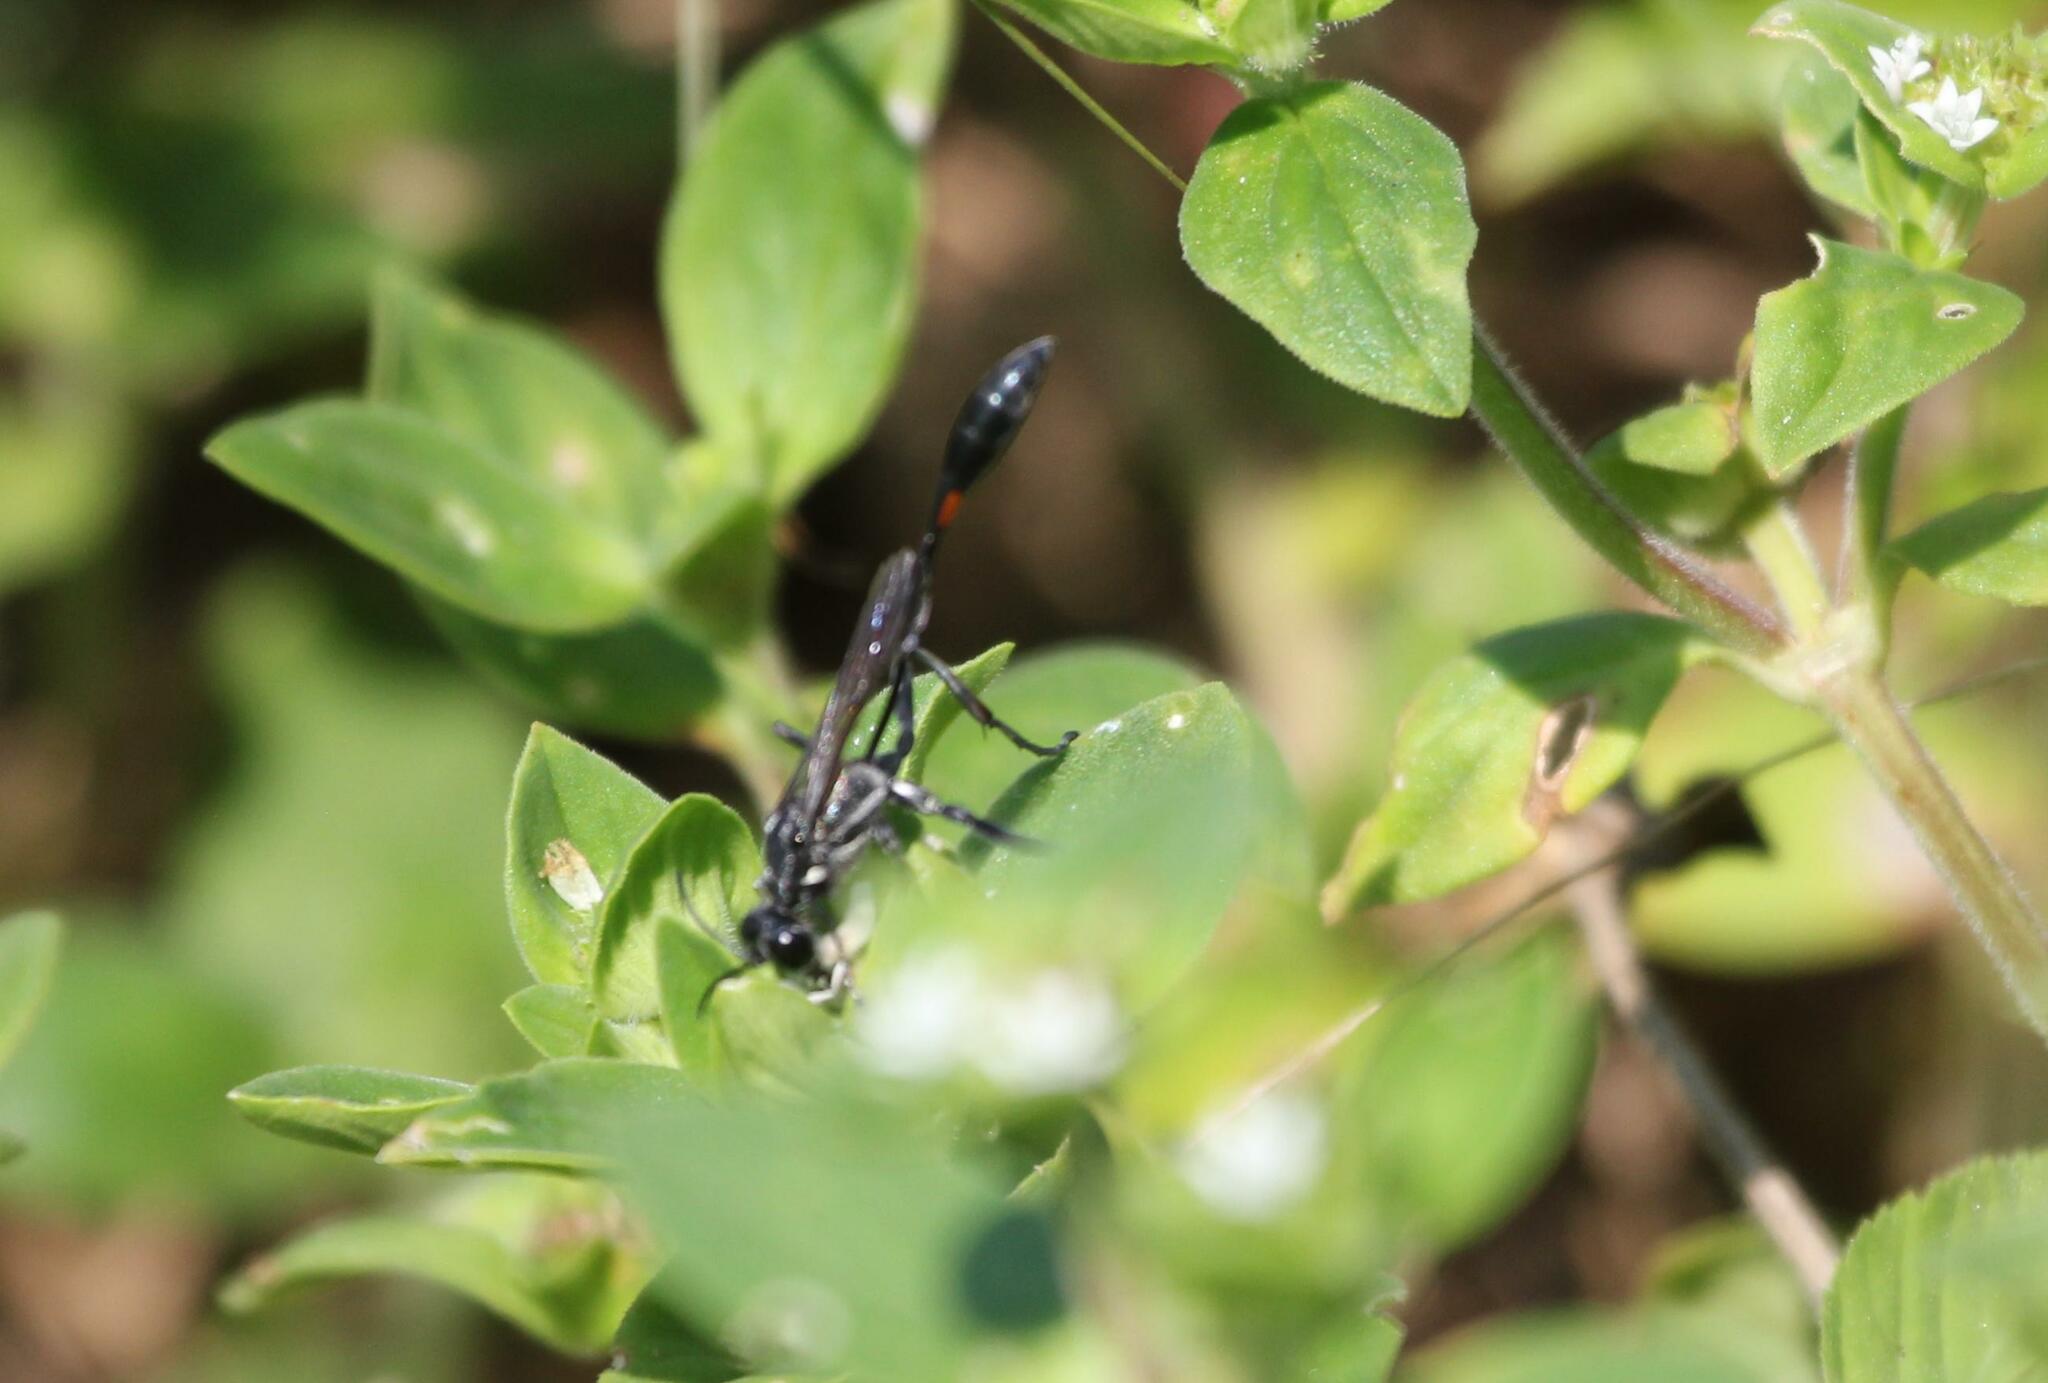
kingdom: Animalia
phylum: Arthropoda
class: Insecta
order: Hymenoptera
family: Sphecidae
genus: Ammophila
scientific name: Ammophila procera
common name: Common thread-waisted wasp
